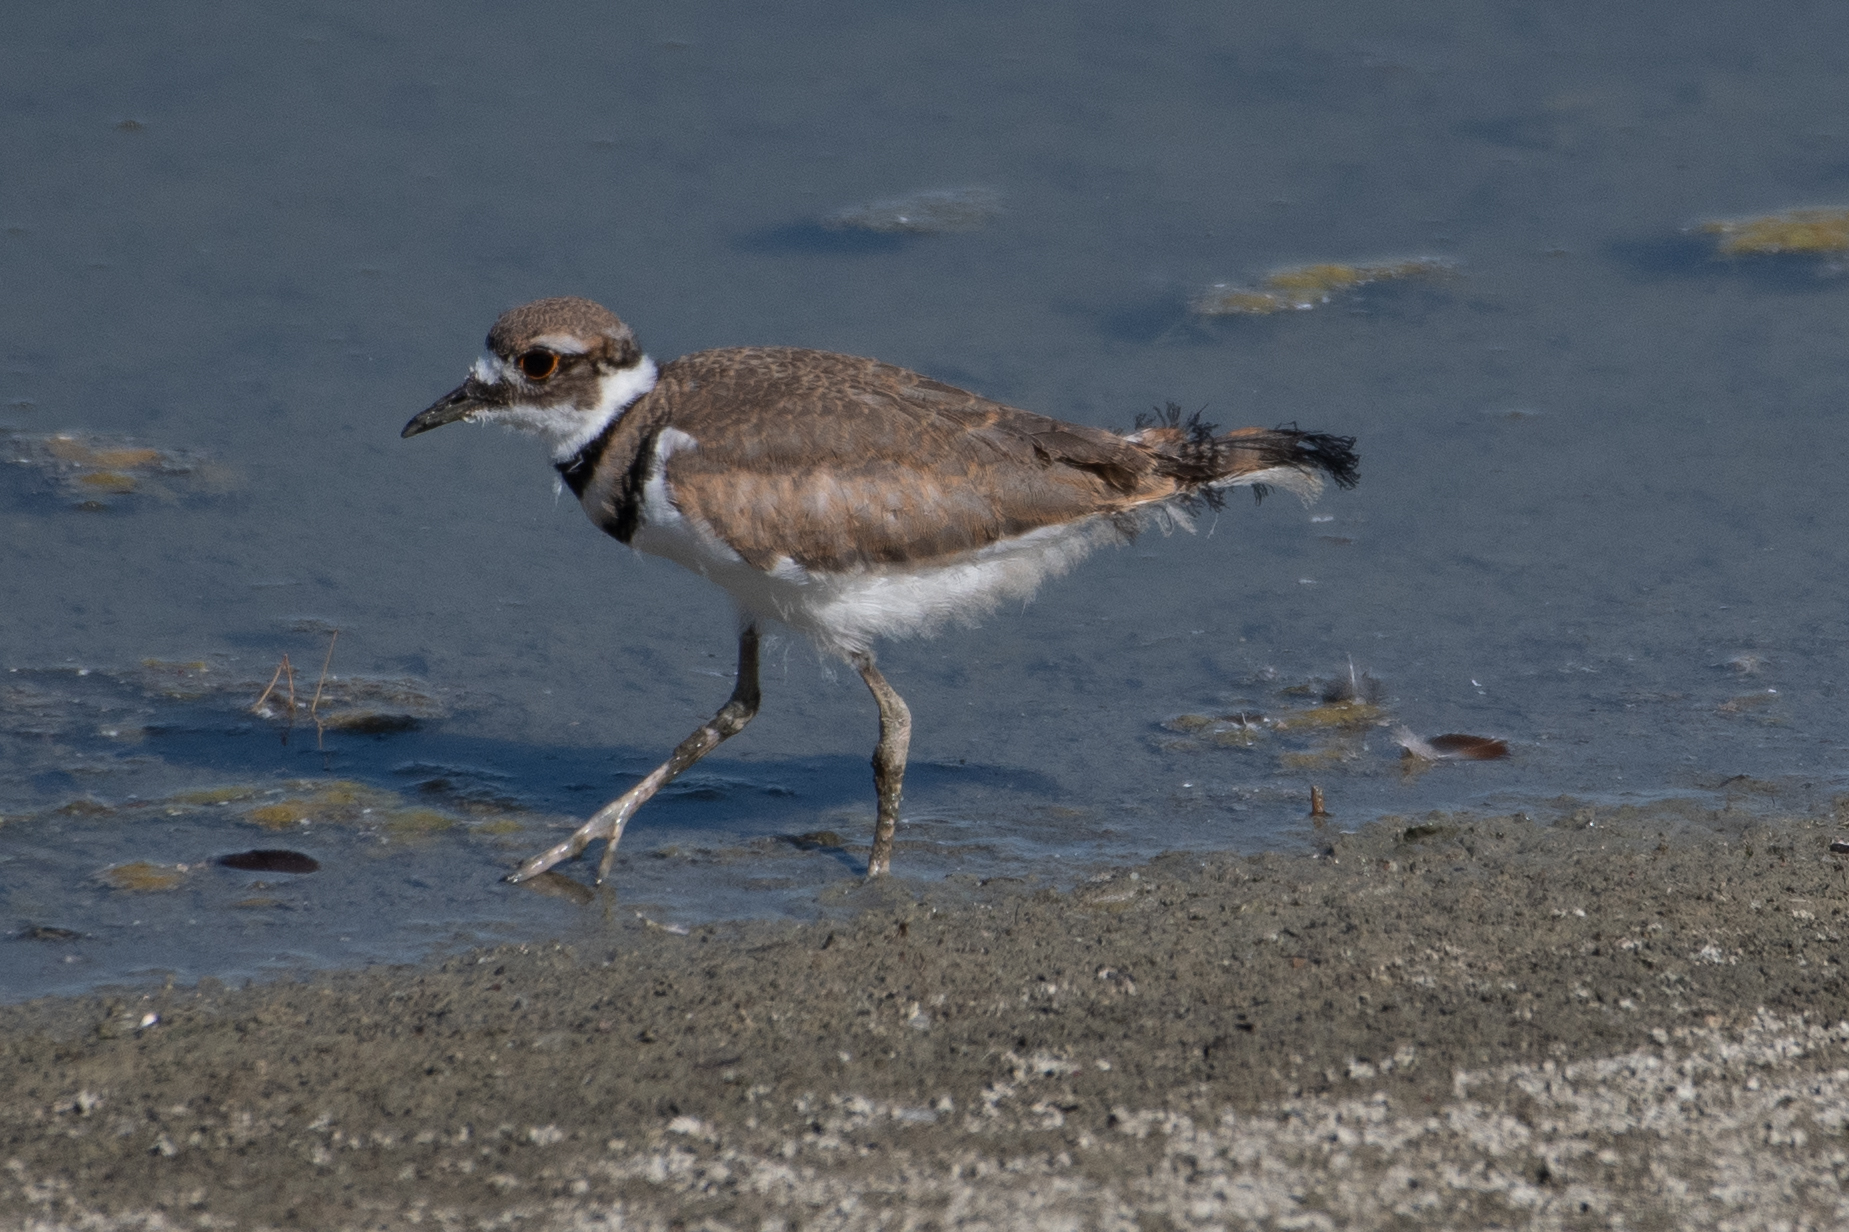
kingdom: Animalia
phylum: Chordata
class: Aves
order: Charadriiformes
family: Charadriidae
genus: Charadrius
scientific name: Charadrius vociferus
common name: Killdeer
